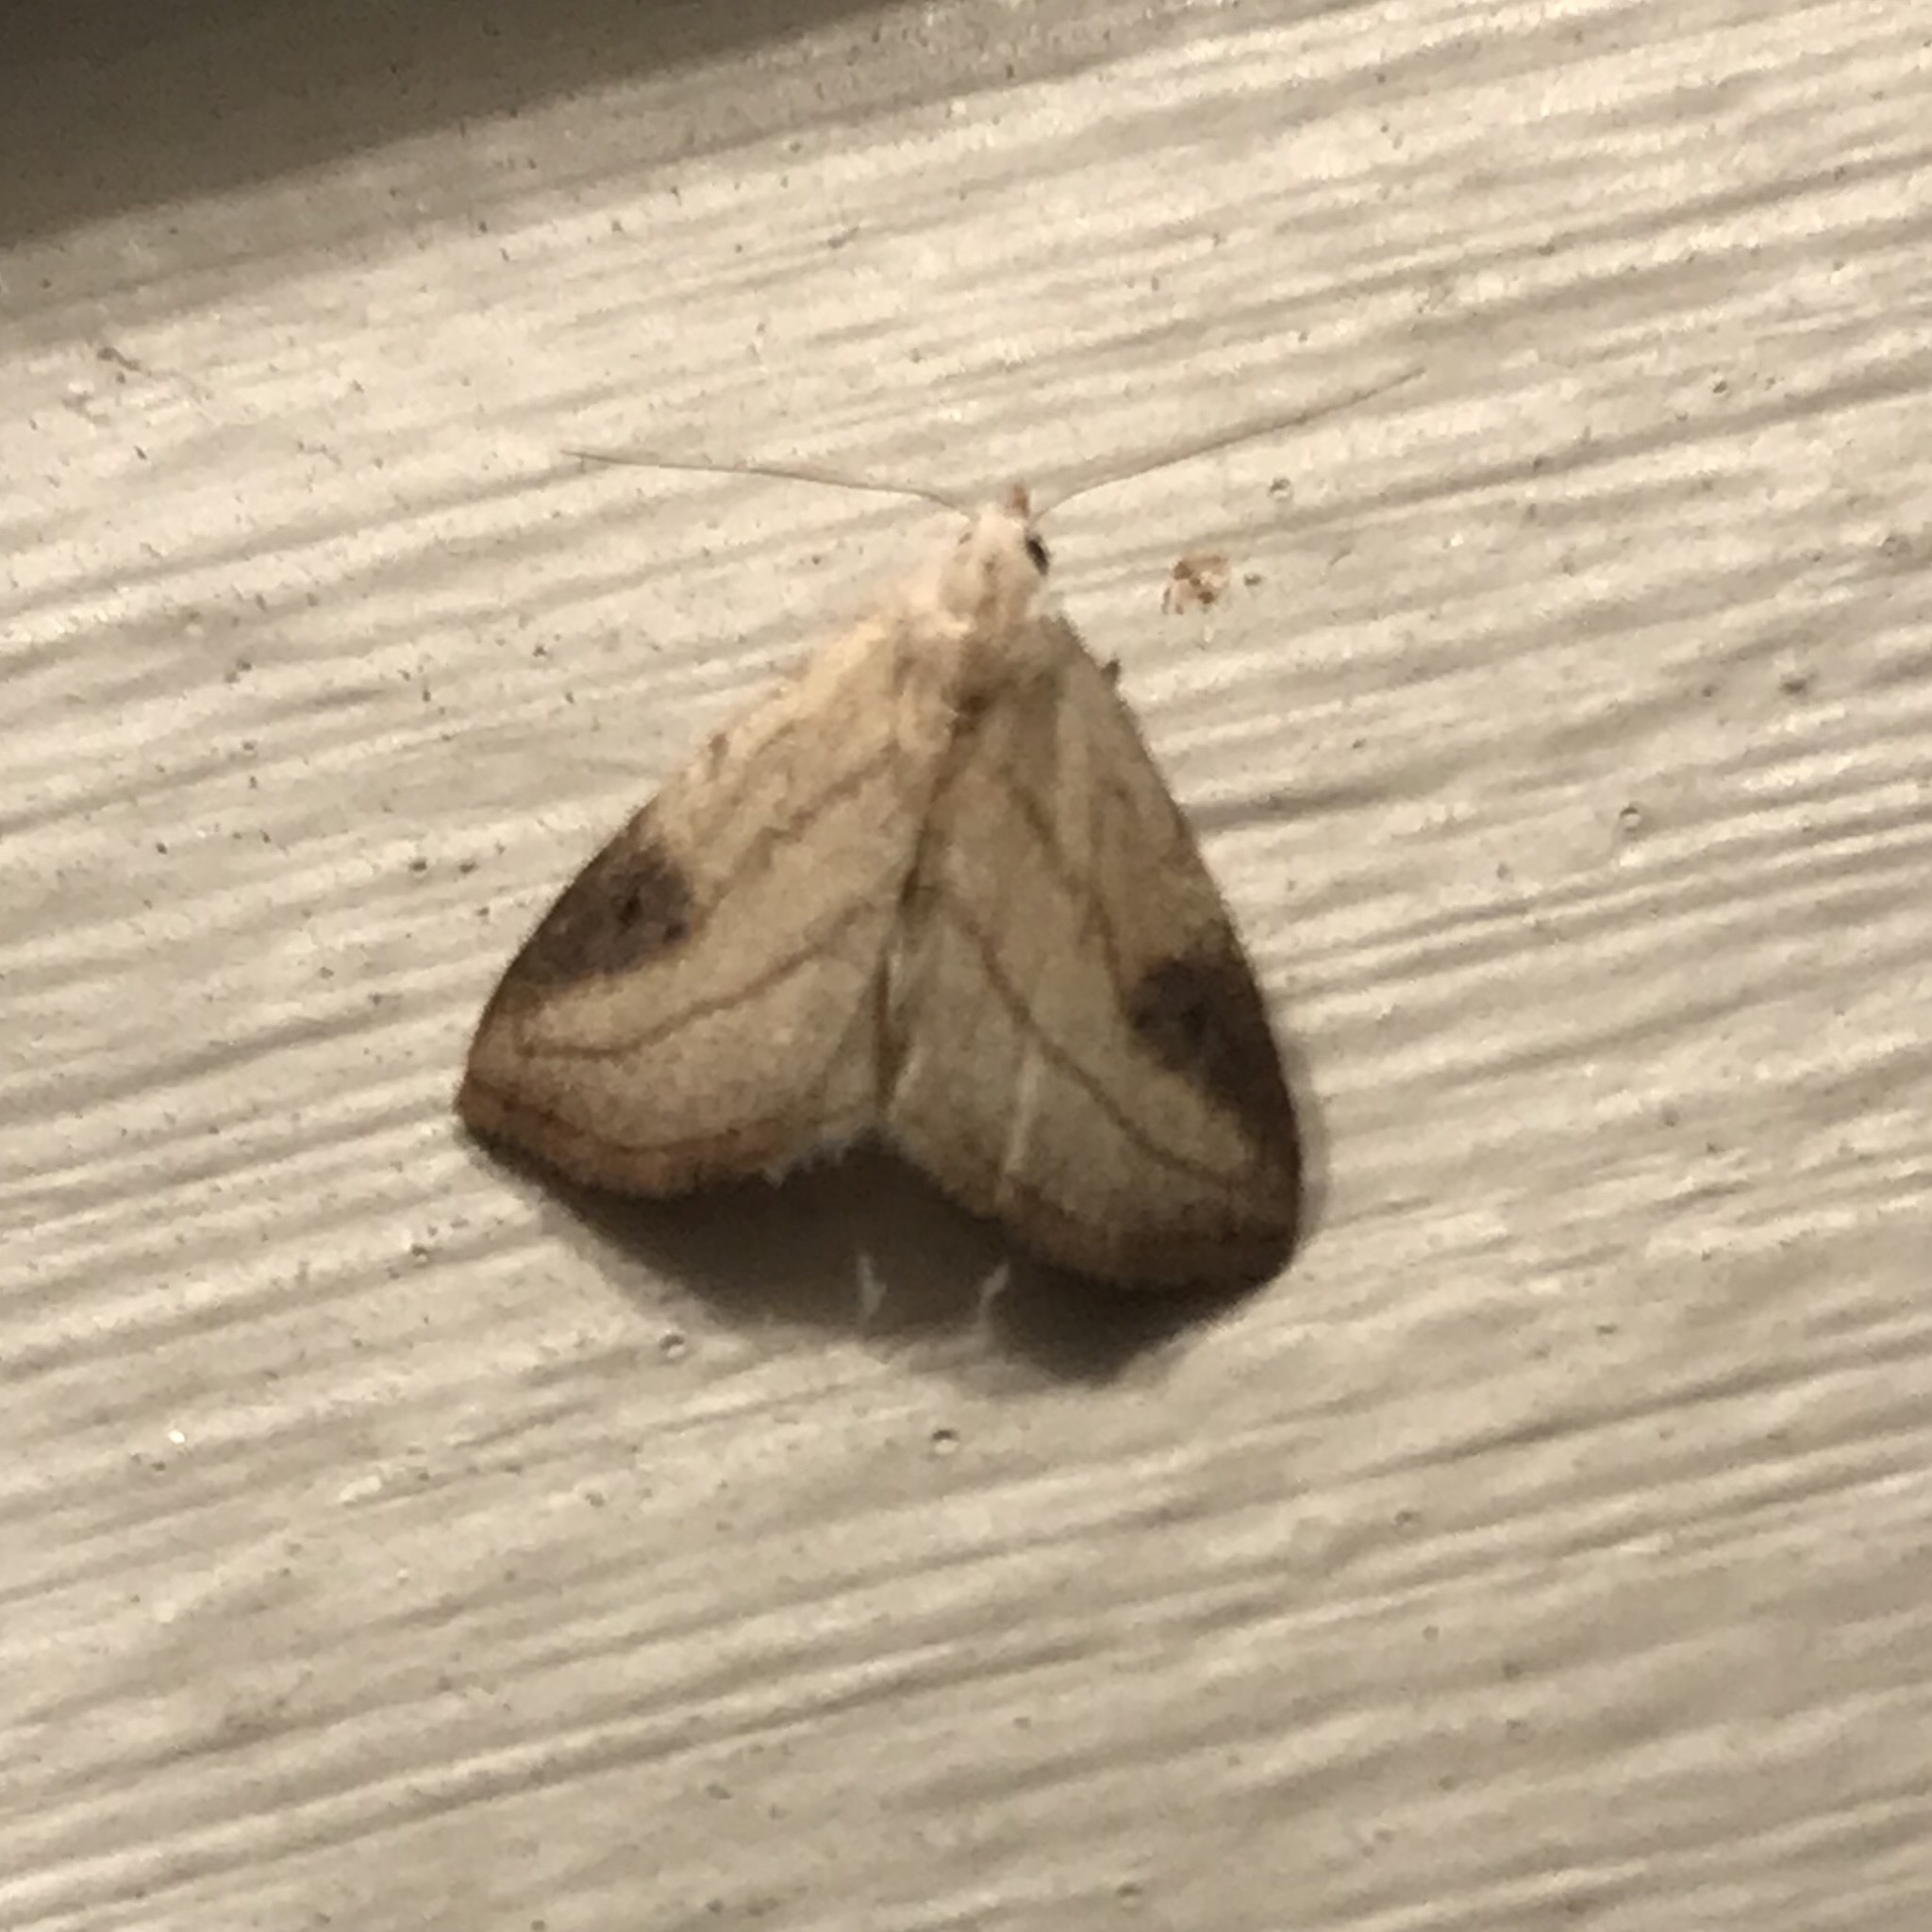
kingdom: Animalia
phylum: Arthropoda
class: Insecta
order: Lepidoptera
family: Erebidae
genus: Rivula
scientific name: Rivula propinqualis
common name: Spotted grass moth
